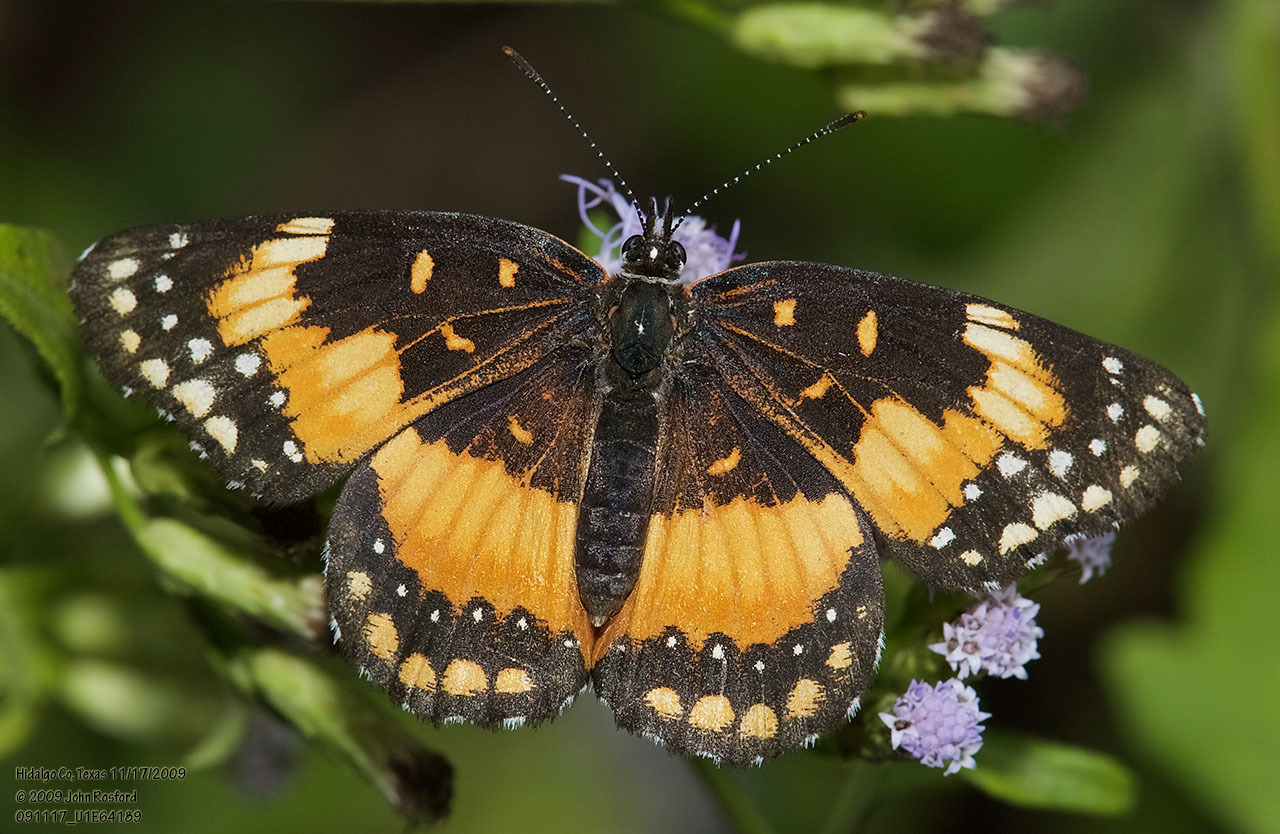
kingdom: Animalia
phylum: Arthropoda
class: Insecta
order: Lepidoptera
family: Nymphalidae
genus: Chlosyne
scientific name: Chlosyne lacinia
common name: Bordered patch
